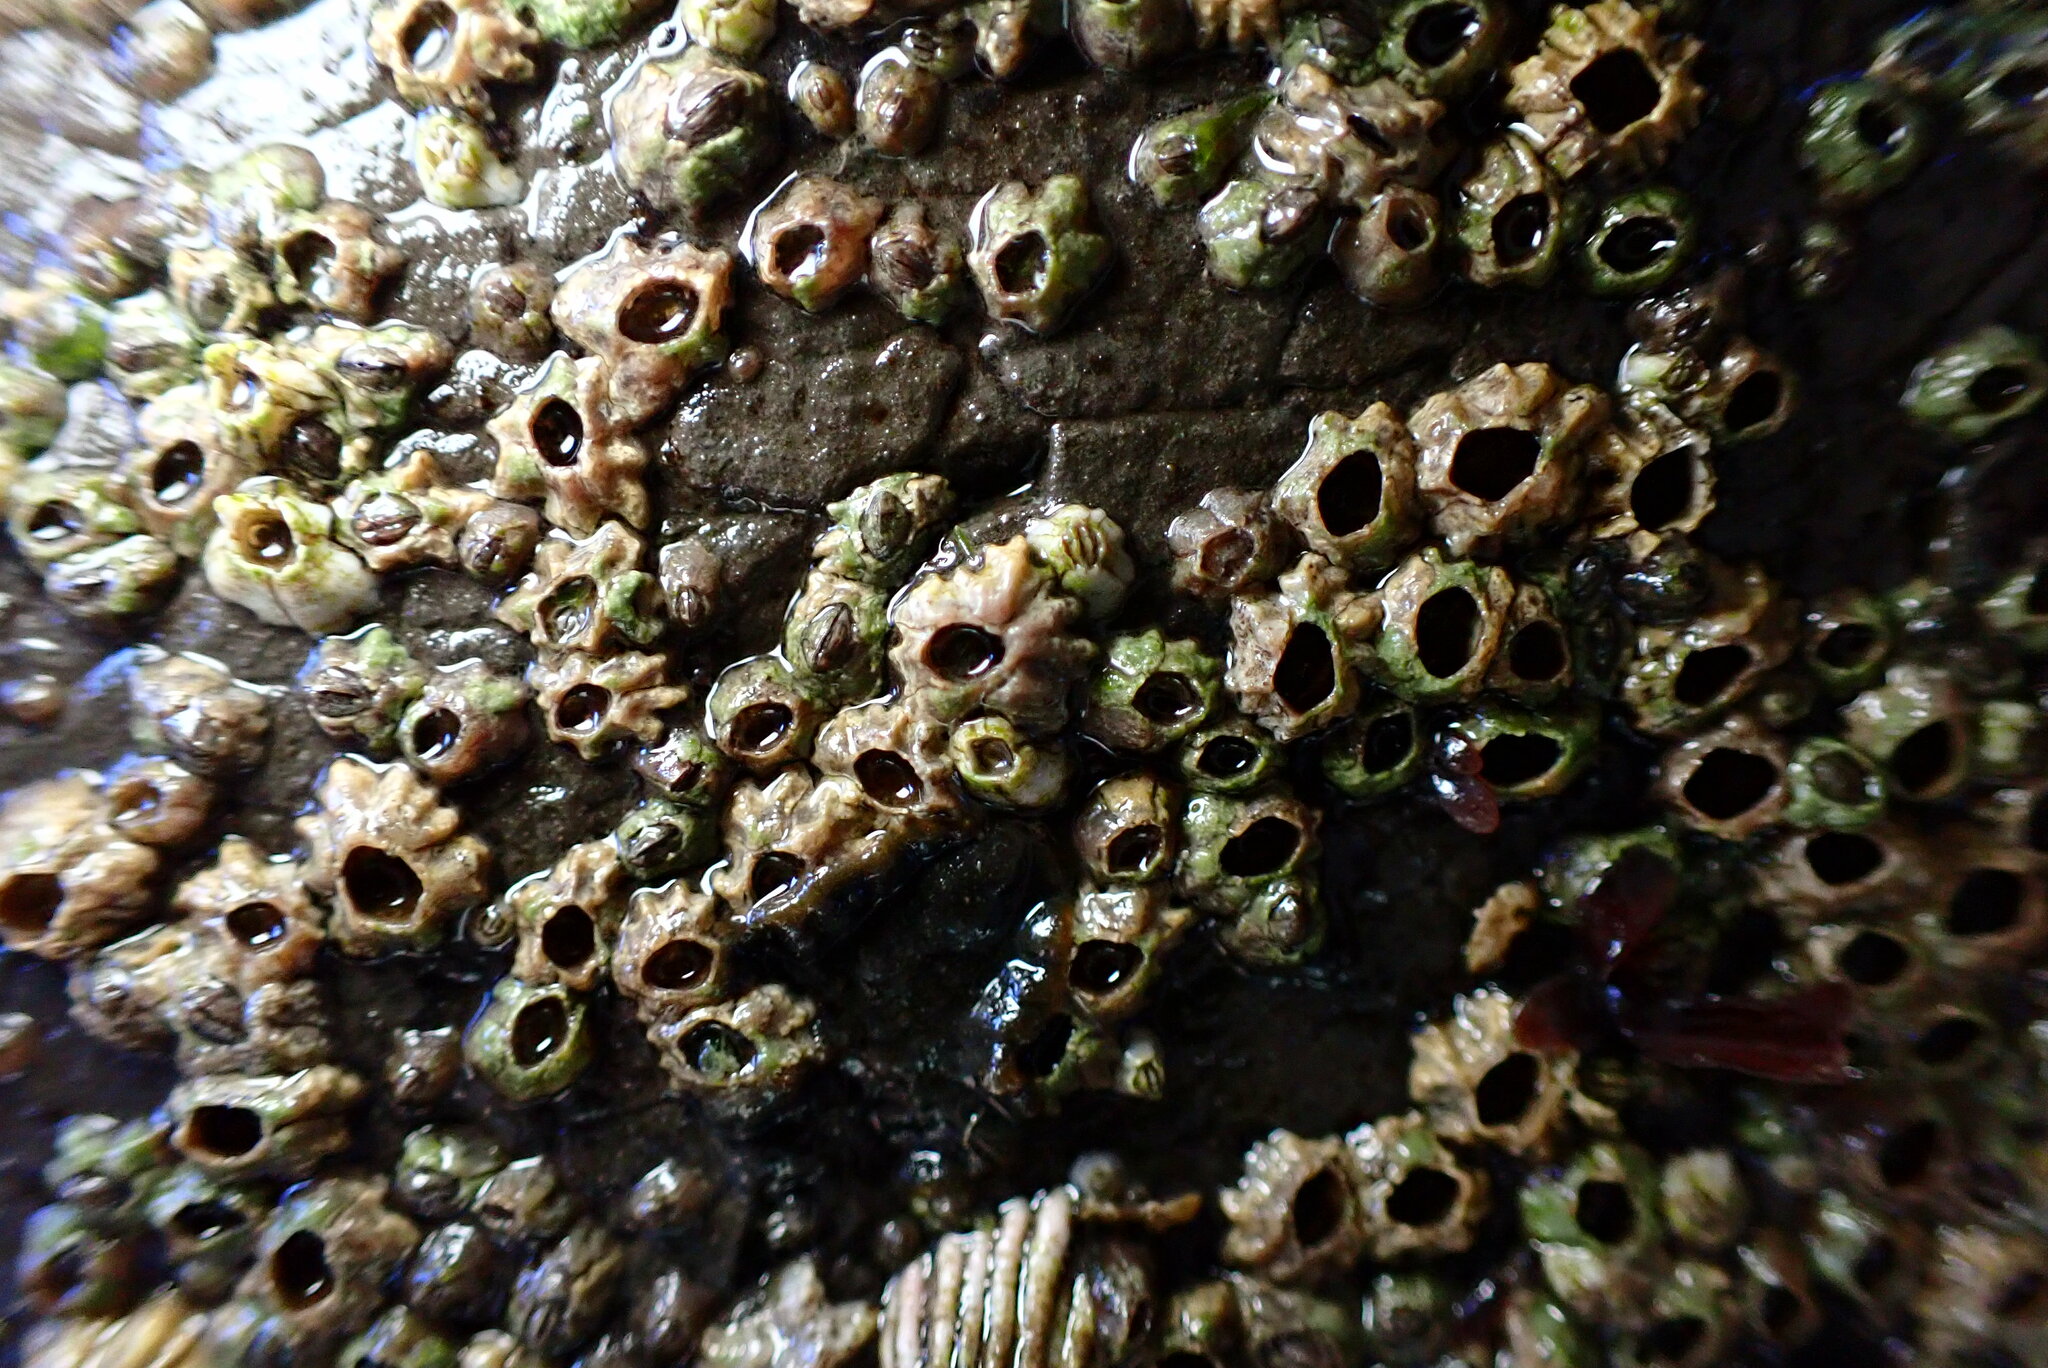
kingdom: Animalia
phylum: Arthropoda
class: Maxillopoda
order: Sessilia
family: Chthamalidae
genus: Chthamalus
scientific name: Chthamalus dalli
